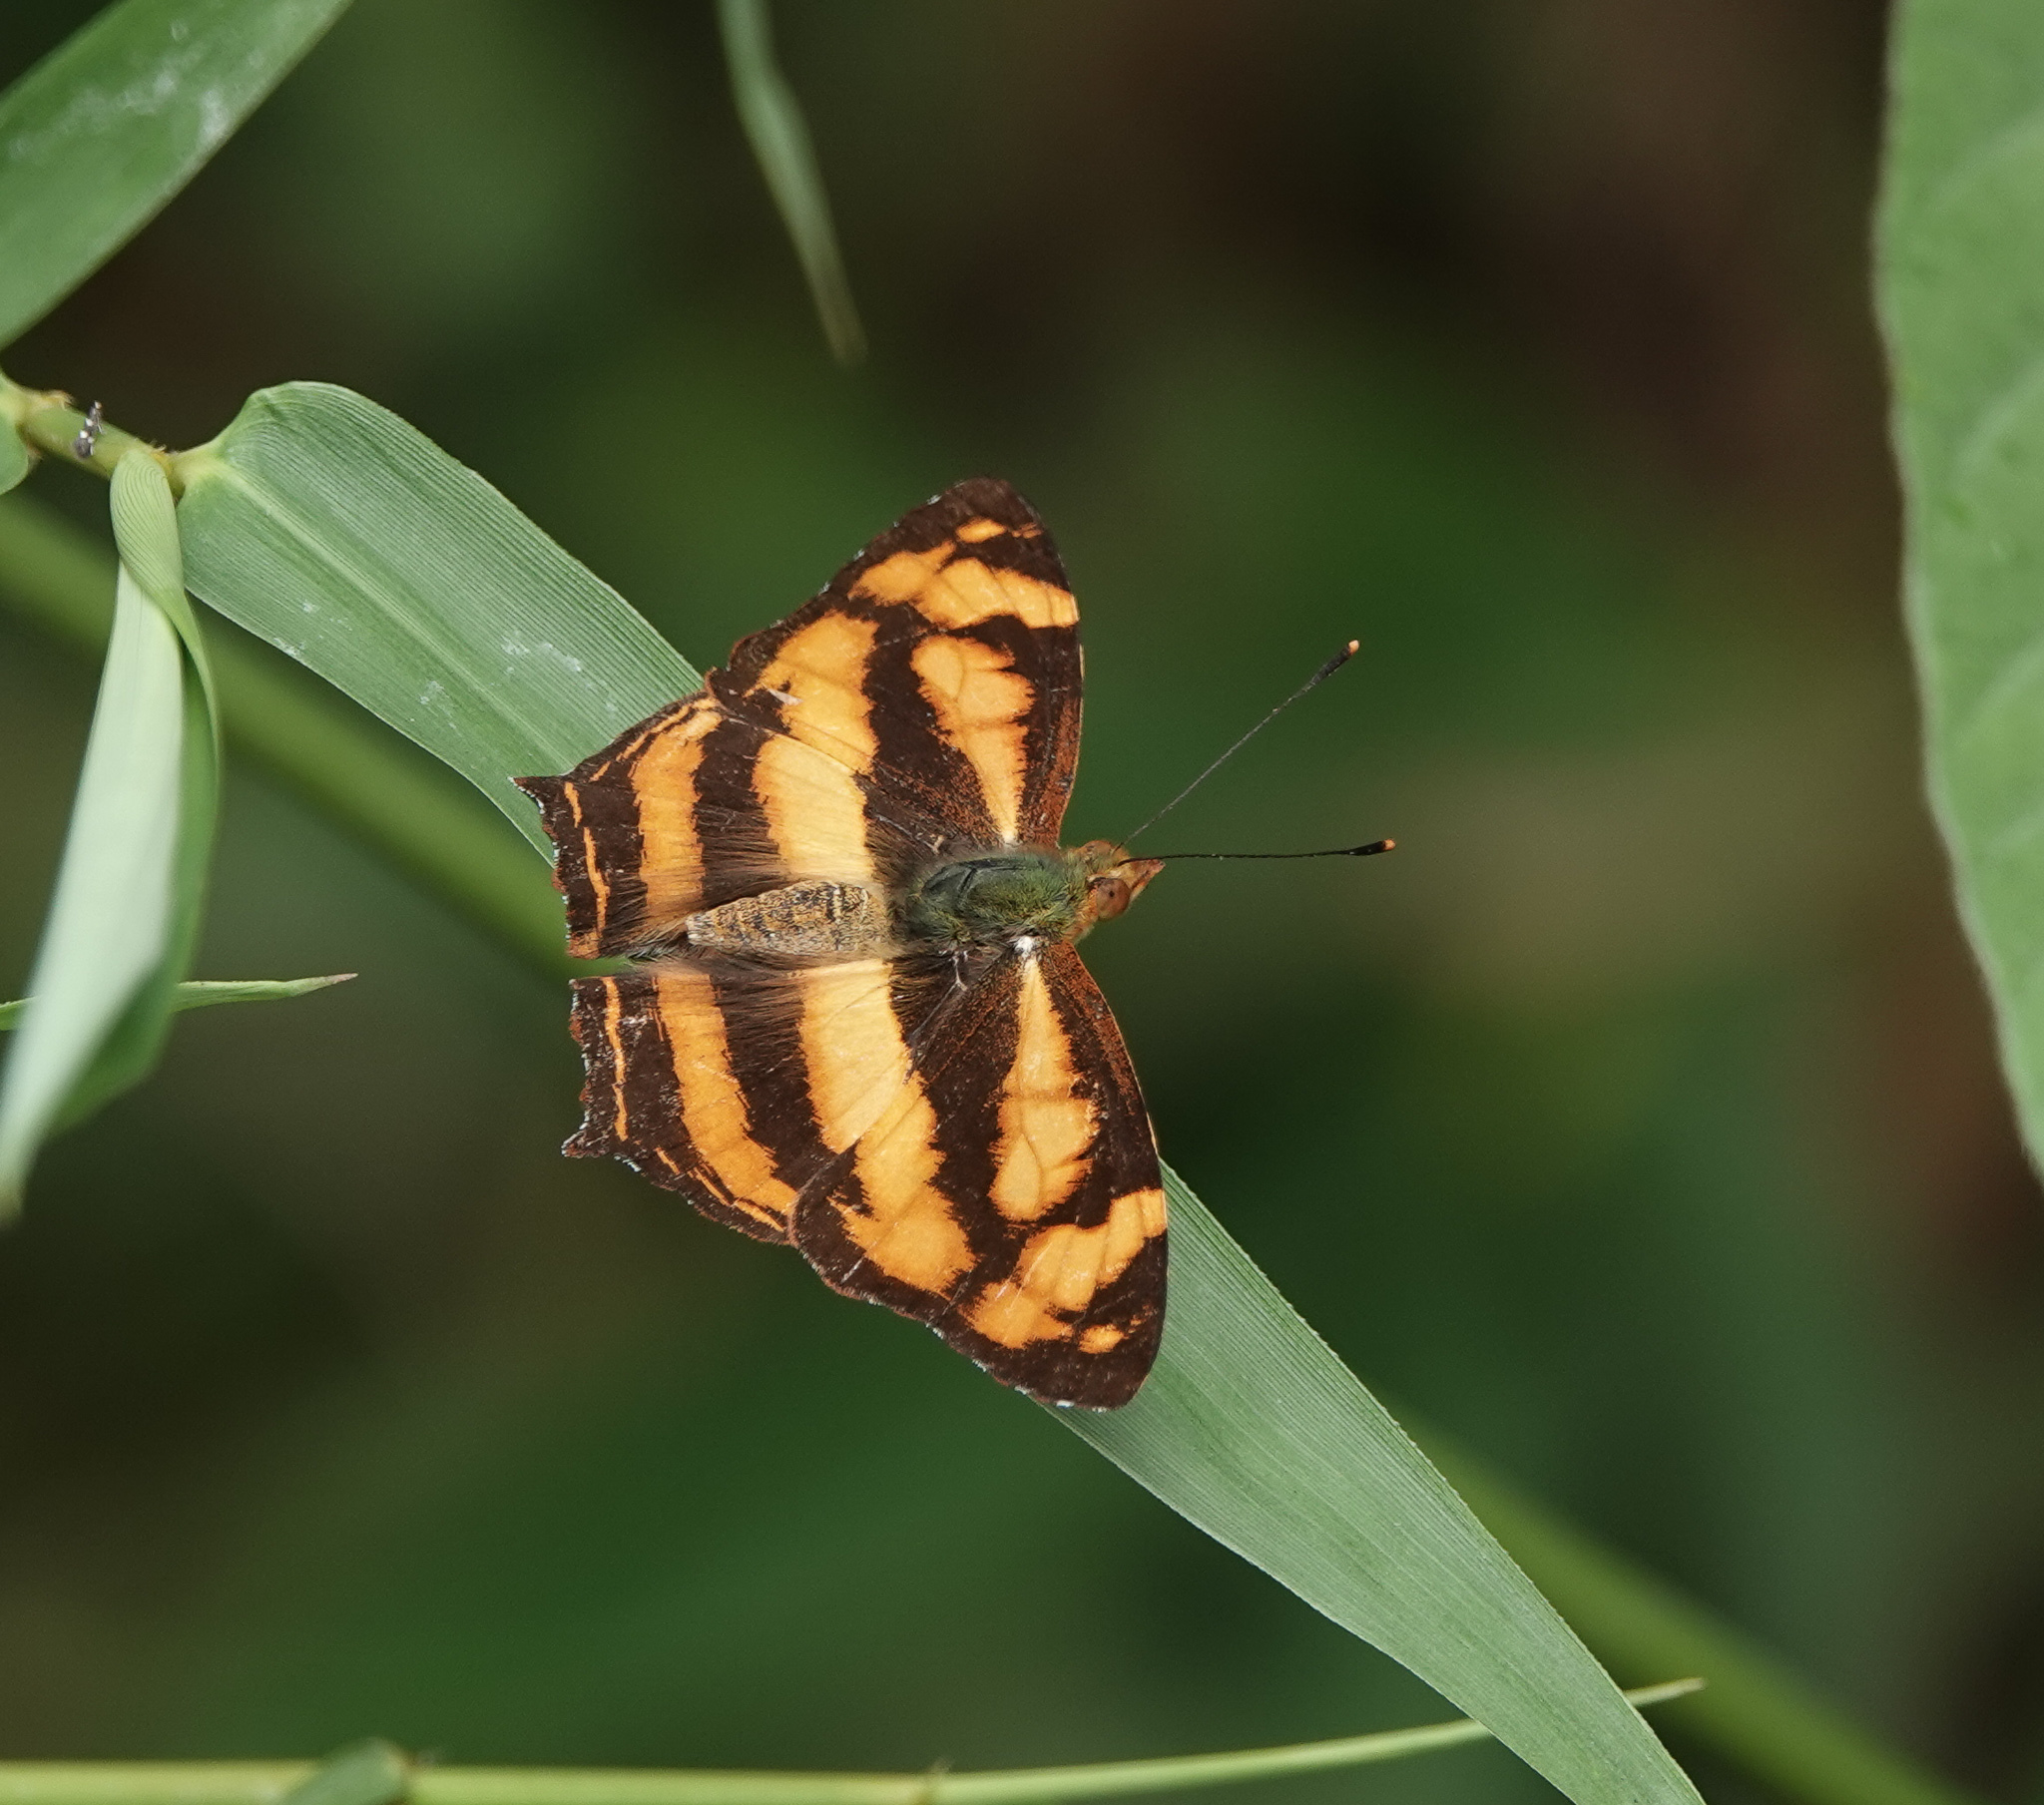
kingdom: Animalia
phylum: Arthropoda
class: Insecta
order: Lepidoptera
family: Nymphalidae
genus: Symbrenthia
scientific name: Symbrenthia hypselis
